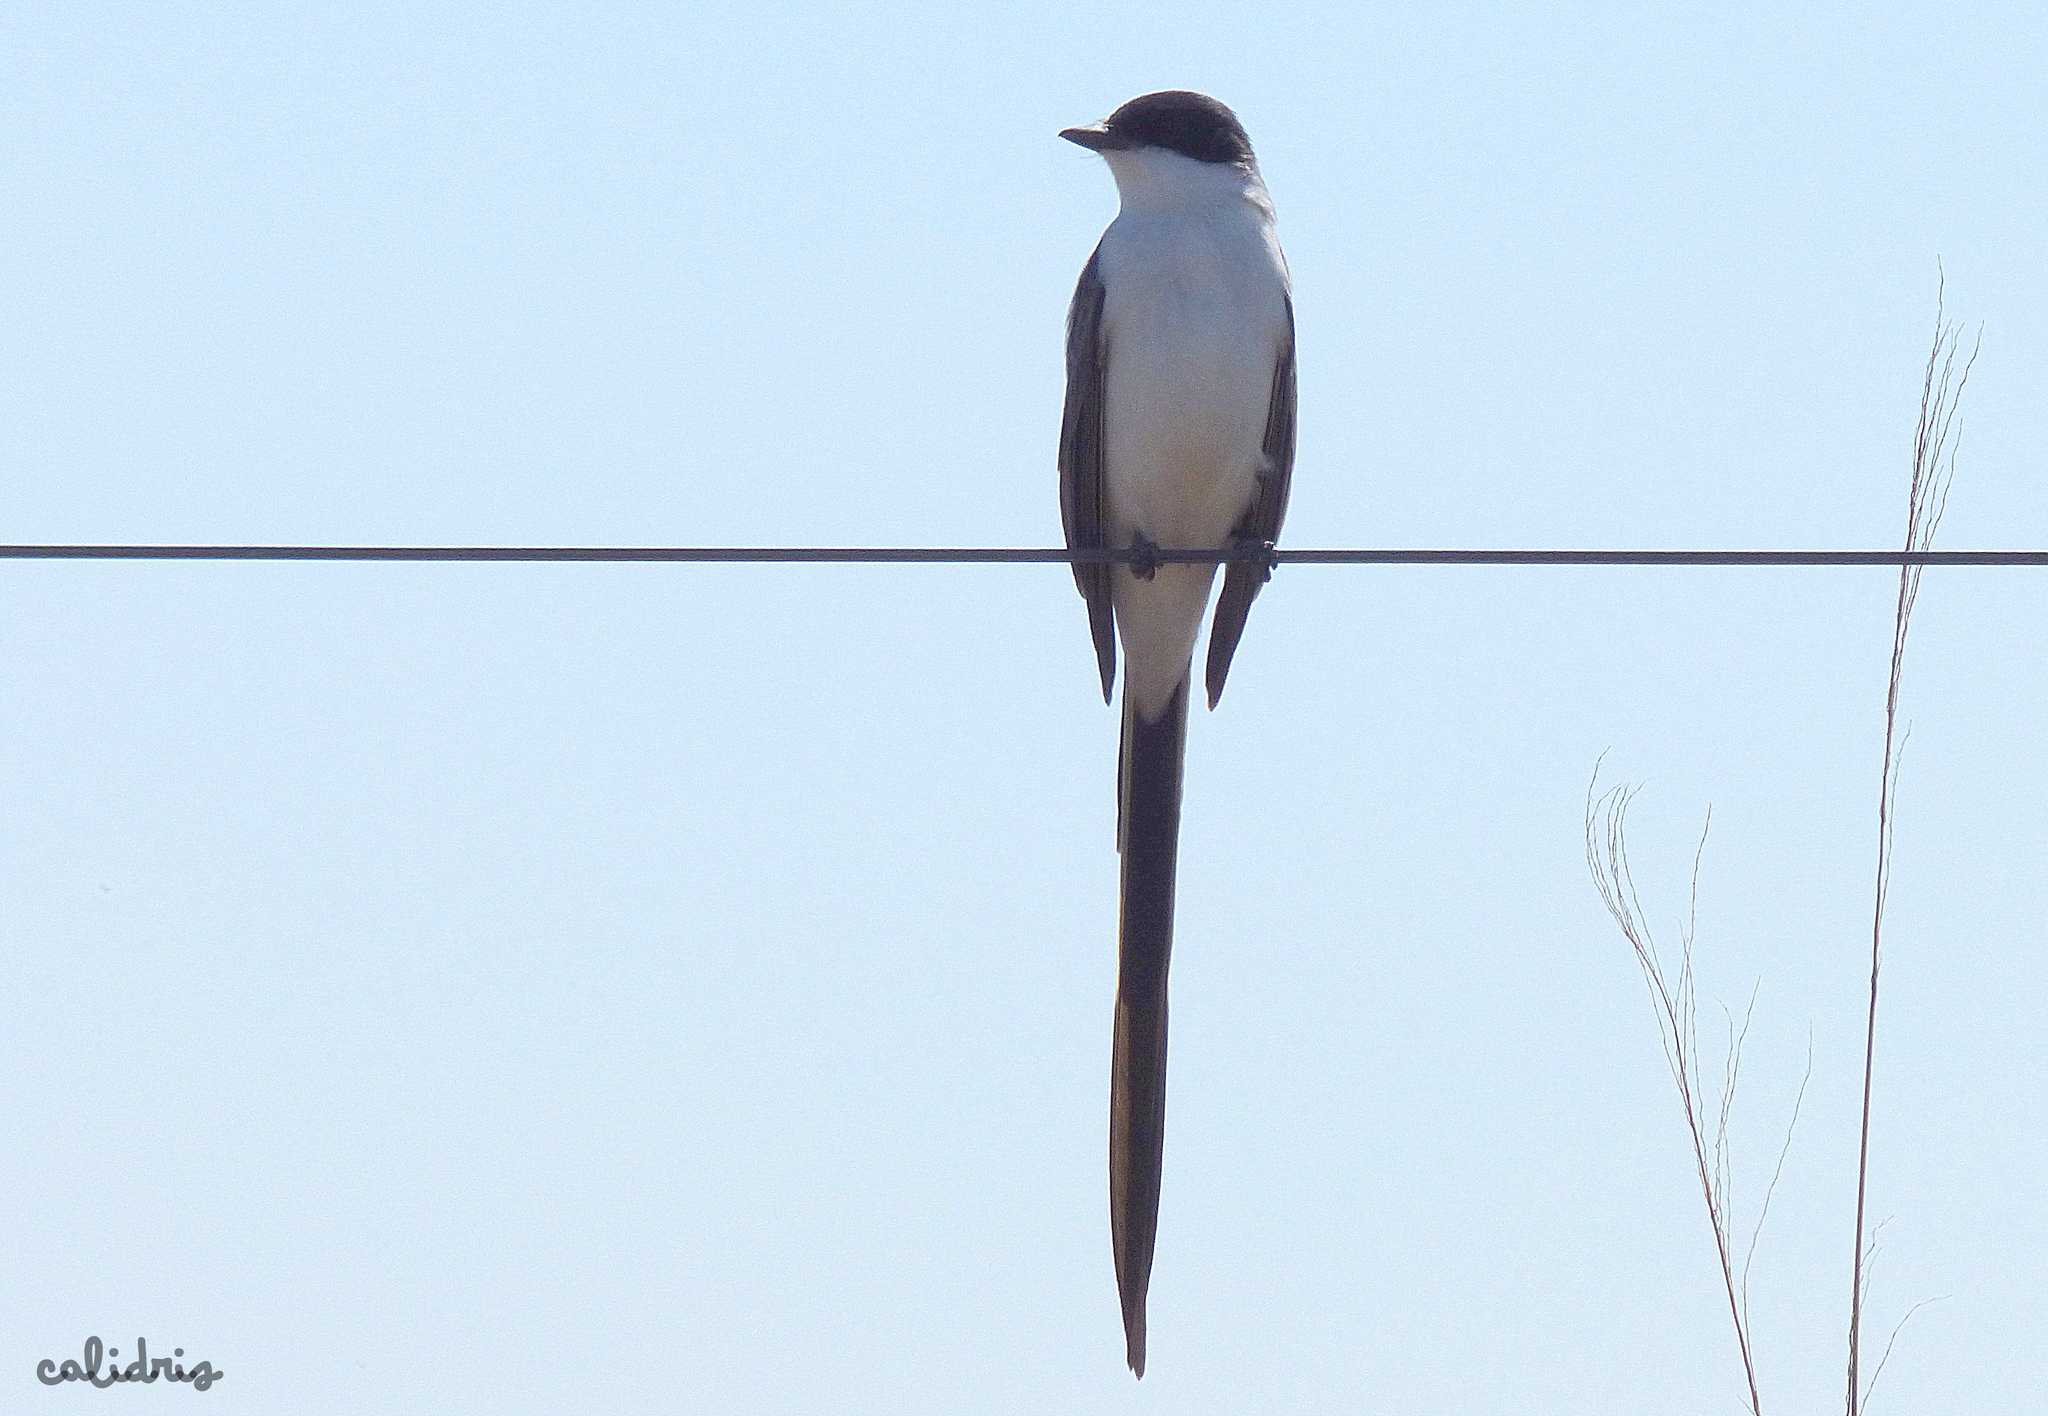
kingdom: Animalia
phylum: Chordata
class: Aves
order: Passeriformes
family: Tyrannidae
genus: Tyrannus
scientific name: Tyrannus savana
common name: Fork-tailed flycatcher
